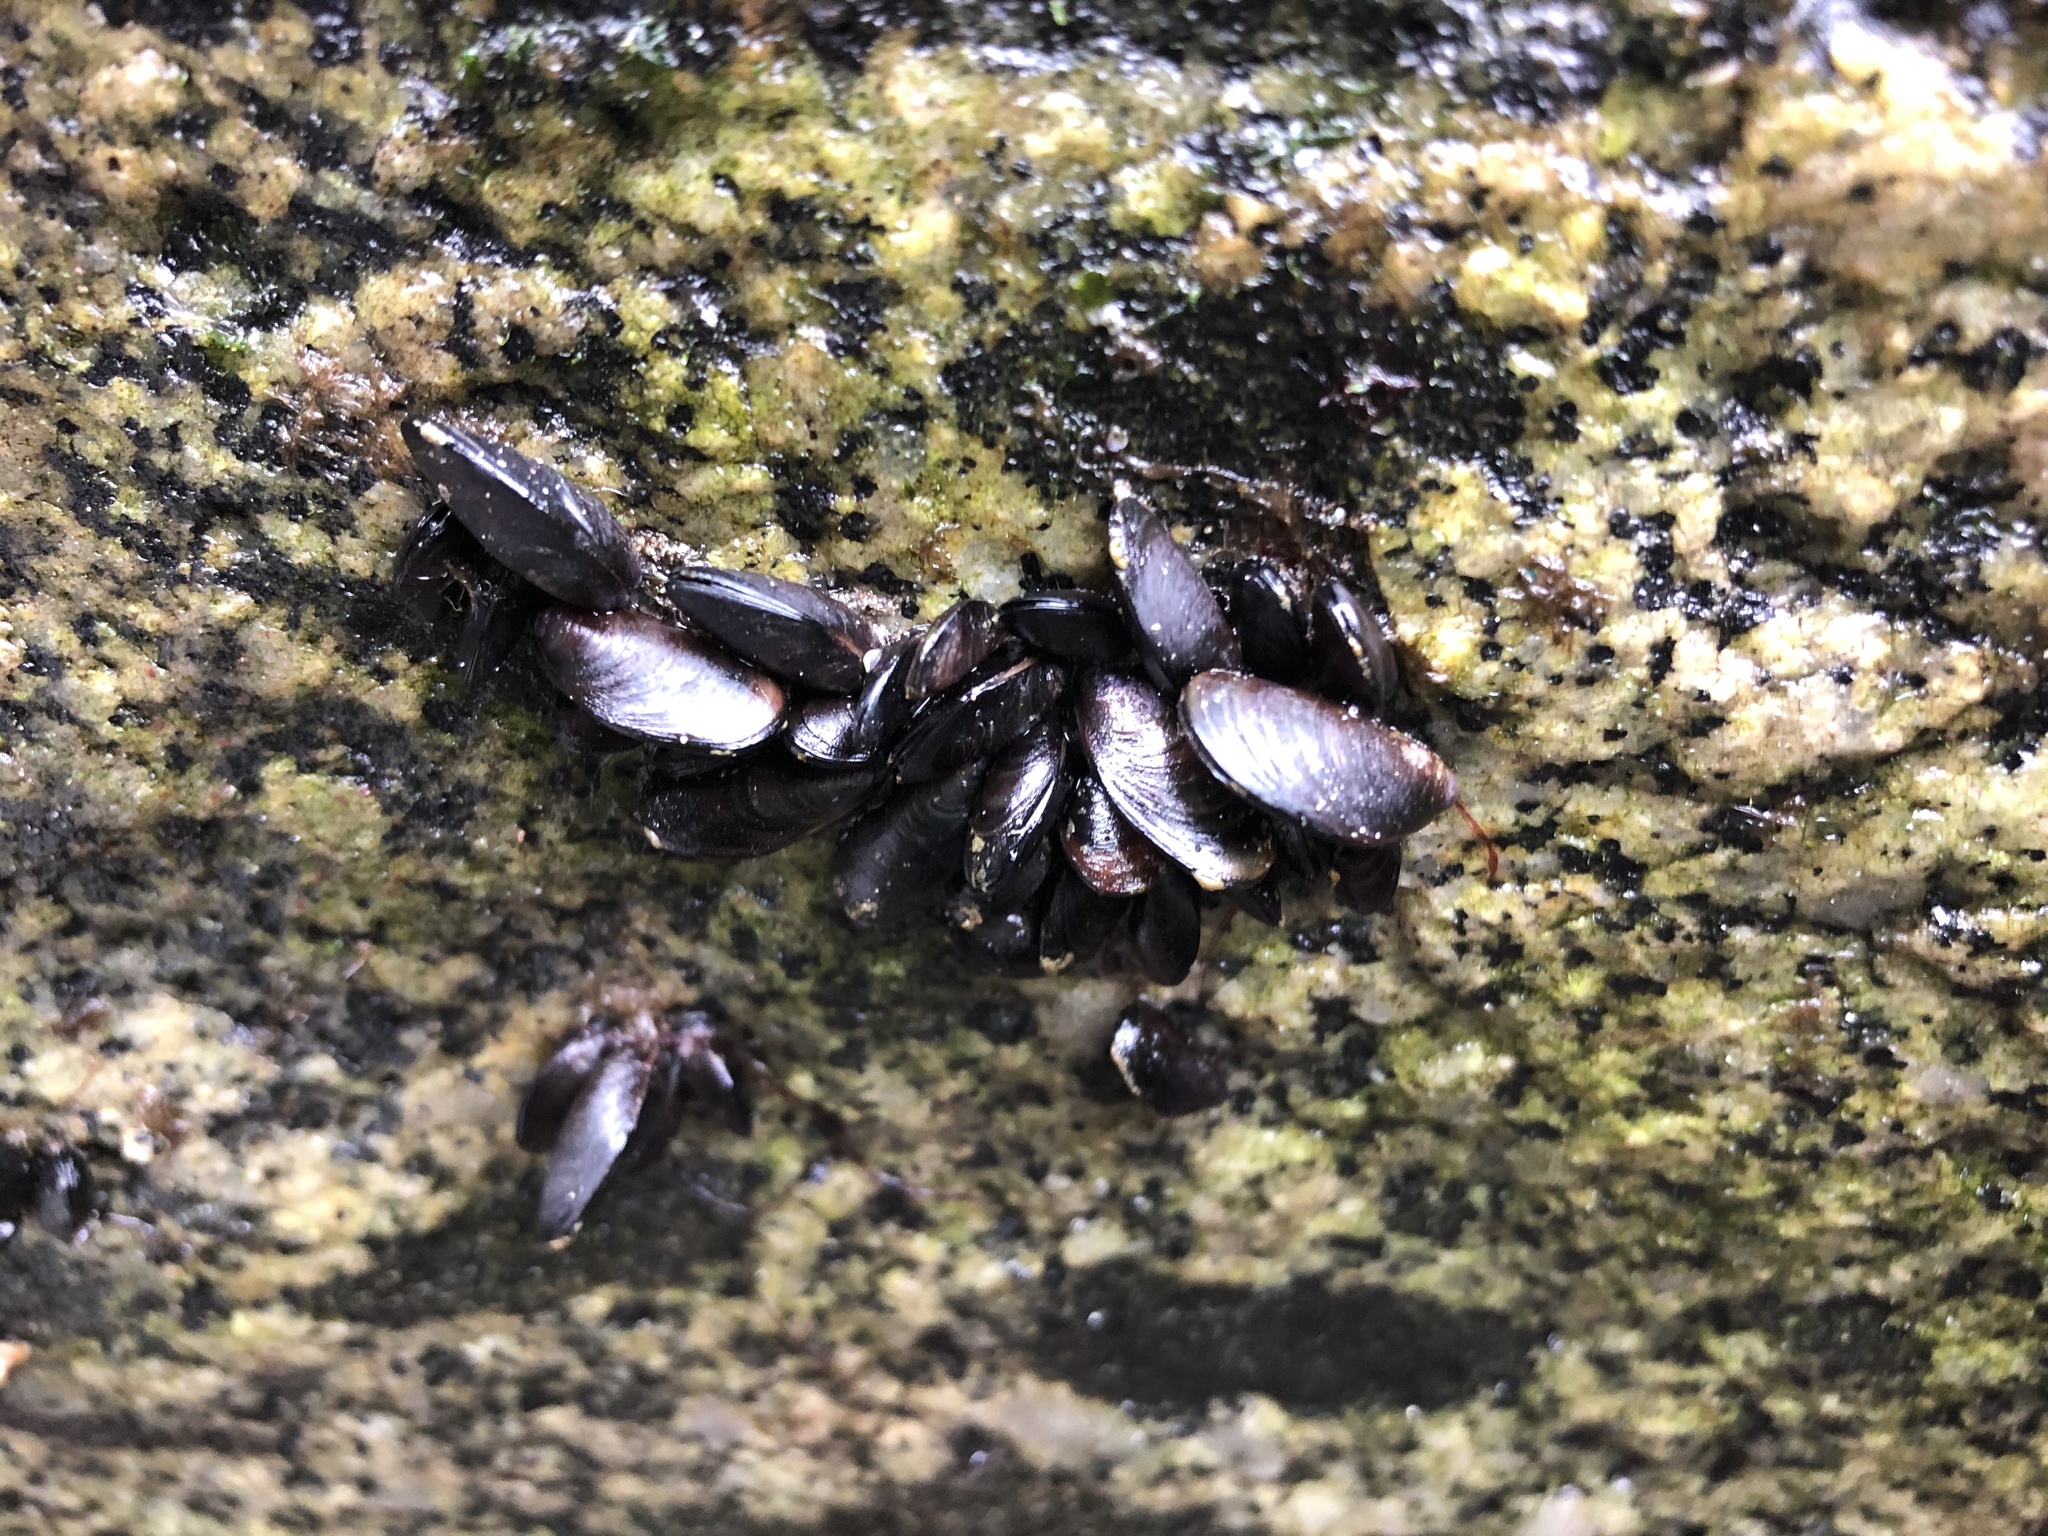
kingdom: Animalia
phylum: Mollusca
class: Bivalvia
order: Mytilida
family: Mytilidae
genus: Semimytilus
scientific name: Semimytilus patagonicus
